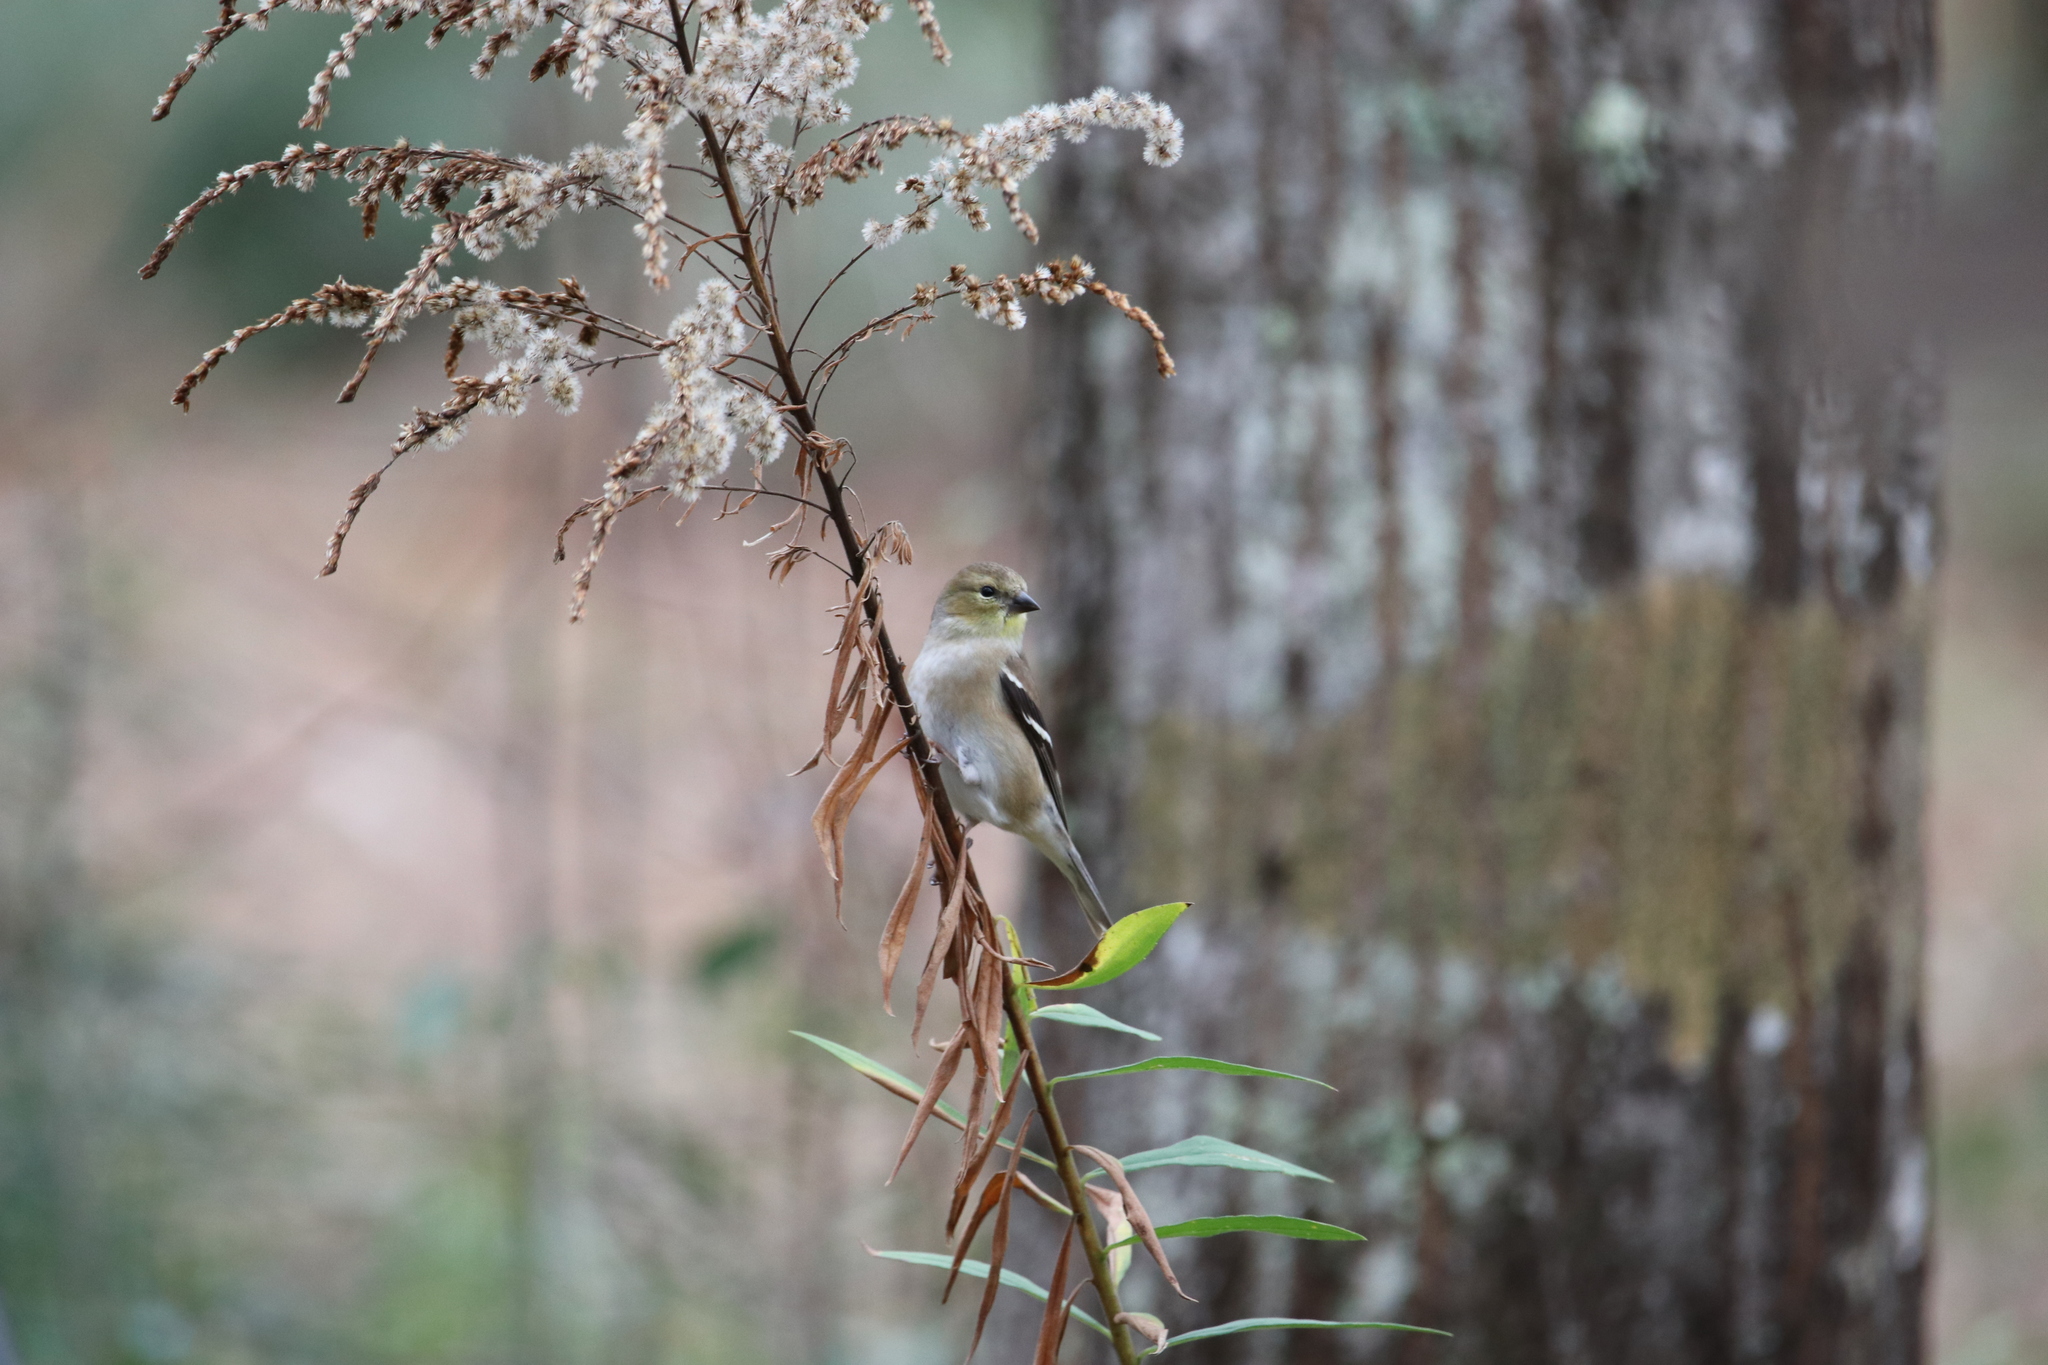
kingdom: Animalia
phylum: Chordata
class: Aves
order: Passeriformes
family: Fringillidae
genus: Spinus
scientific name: Spinus tristis
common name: American goldfinch
